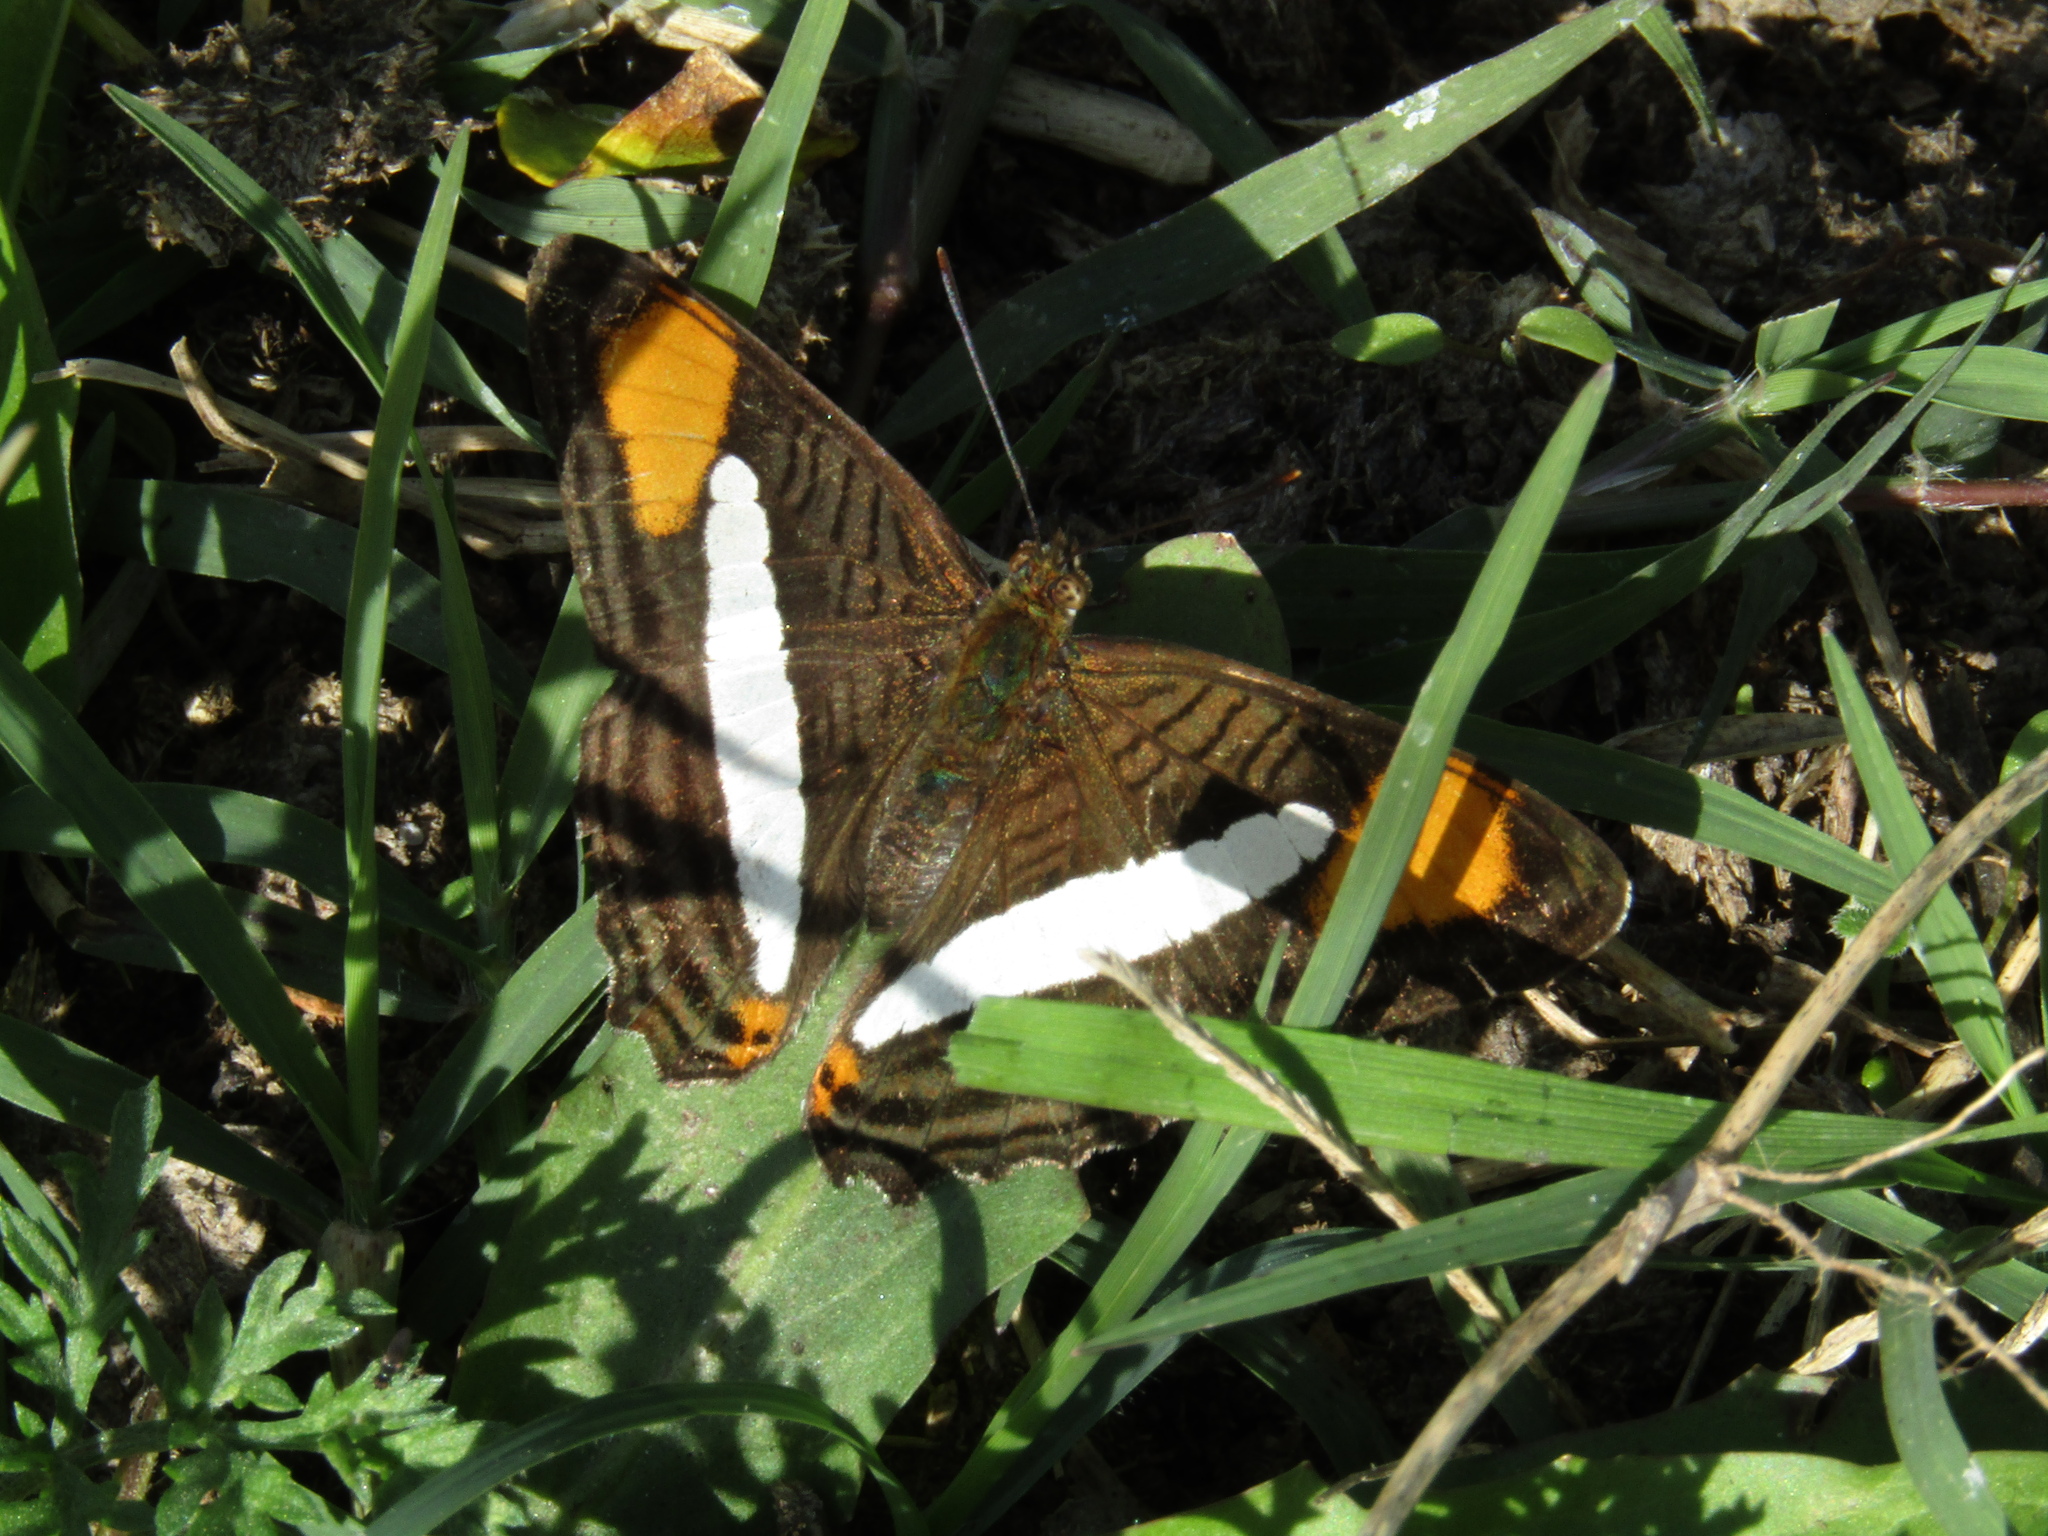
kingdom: Animalia
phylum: Arthropoda
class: Insecta
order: Lepidoptera
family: Nymphalidae
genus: Limenitis
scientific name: Limenitis thessalia
